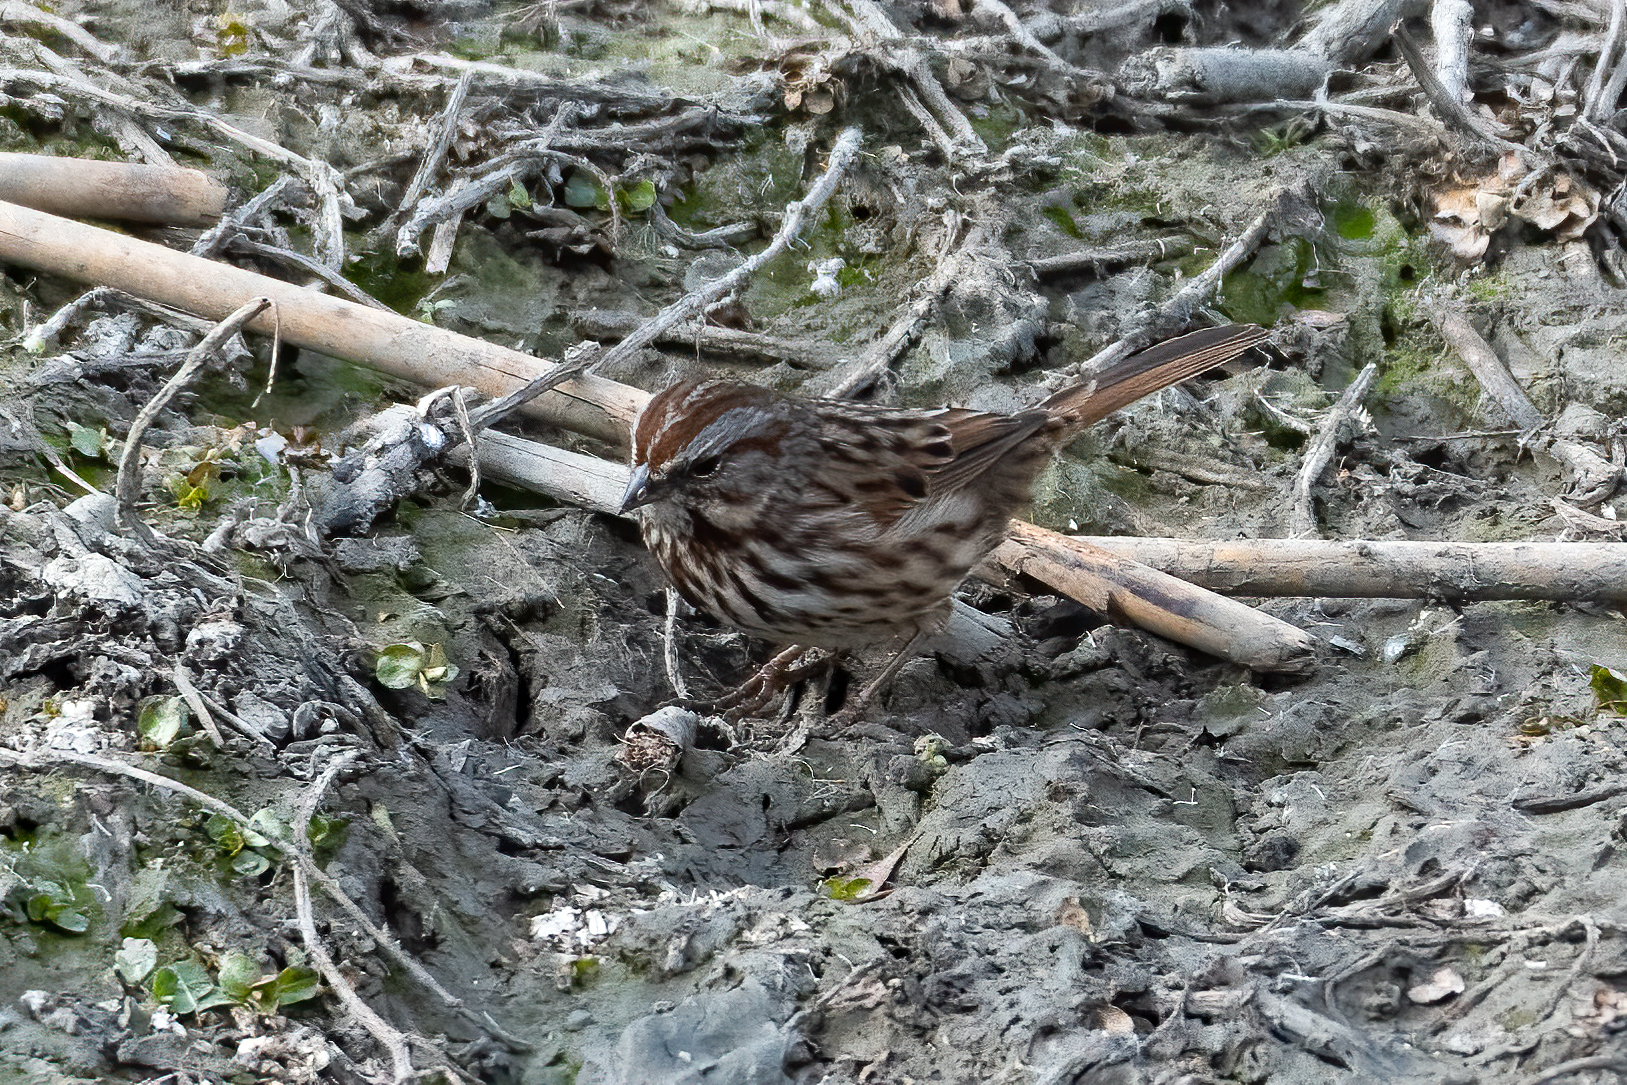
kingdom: Animalia
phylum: Chordata
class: Aves
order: Passeriformes
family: Passerellidae
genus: Melospiza
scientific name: Melospiza melodia
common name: Song sparrow
